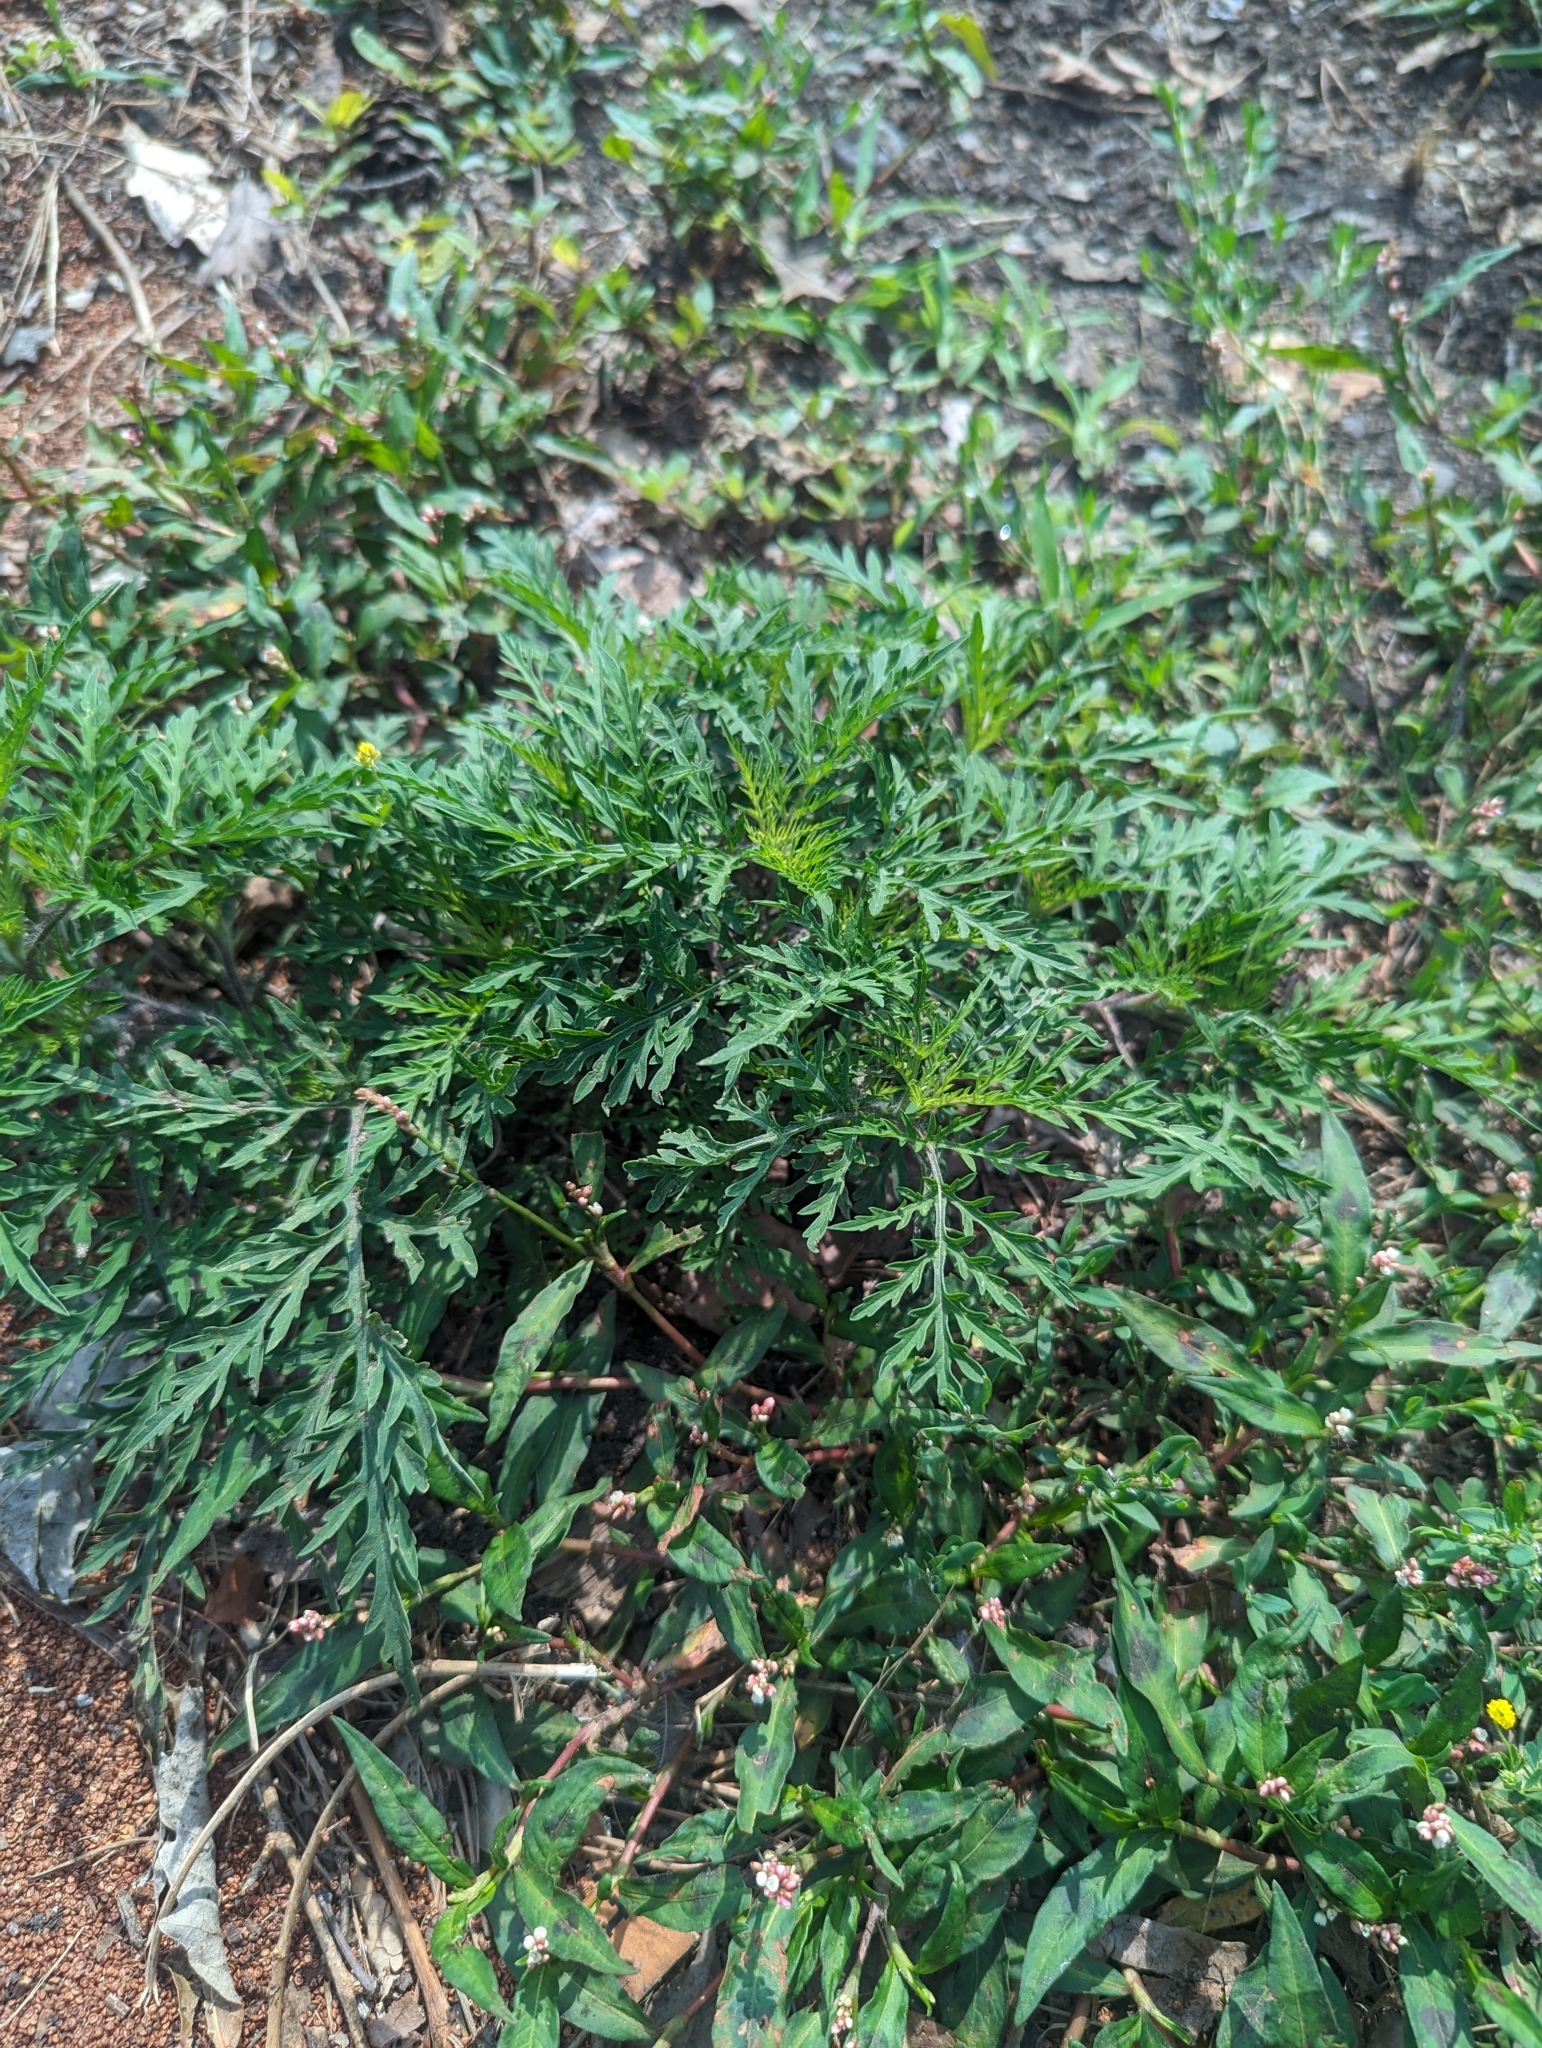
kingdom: Plantae
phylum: Tracheophyta
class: Magnoliopsida
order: Asterales
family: Asteraceae
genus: Ambrosia
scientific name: Ambrosia artemisiifolia
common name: Annual ragweed
